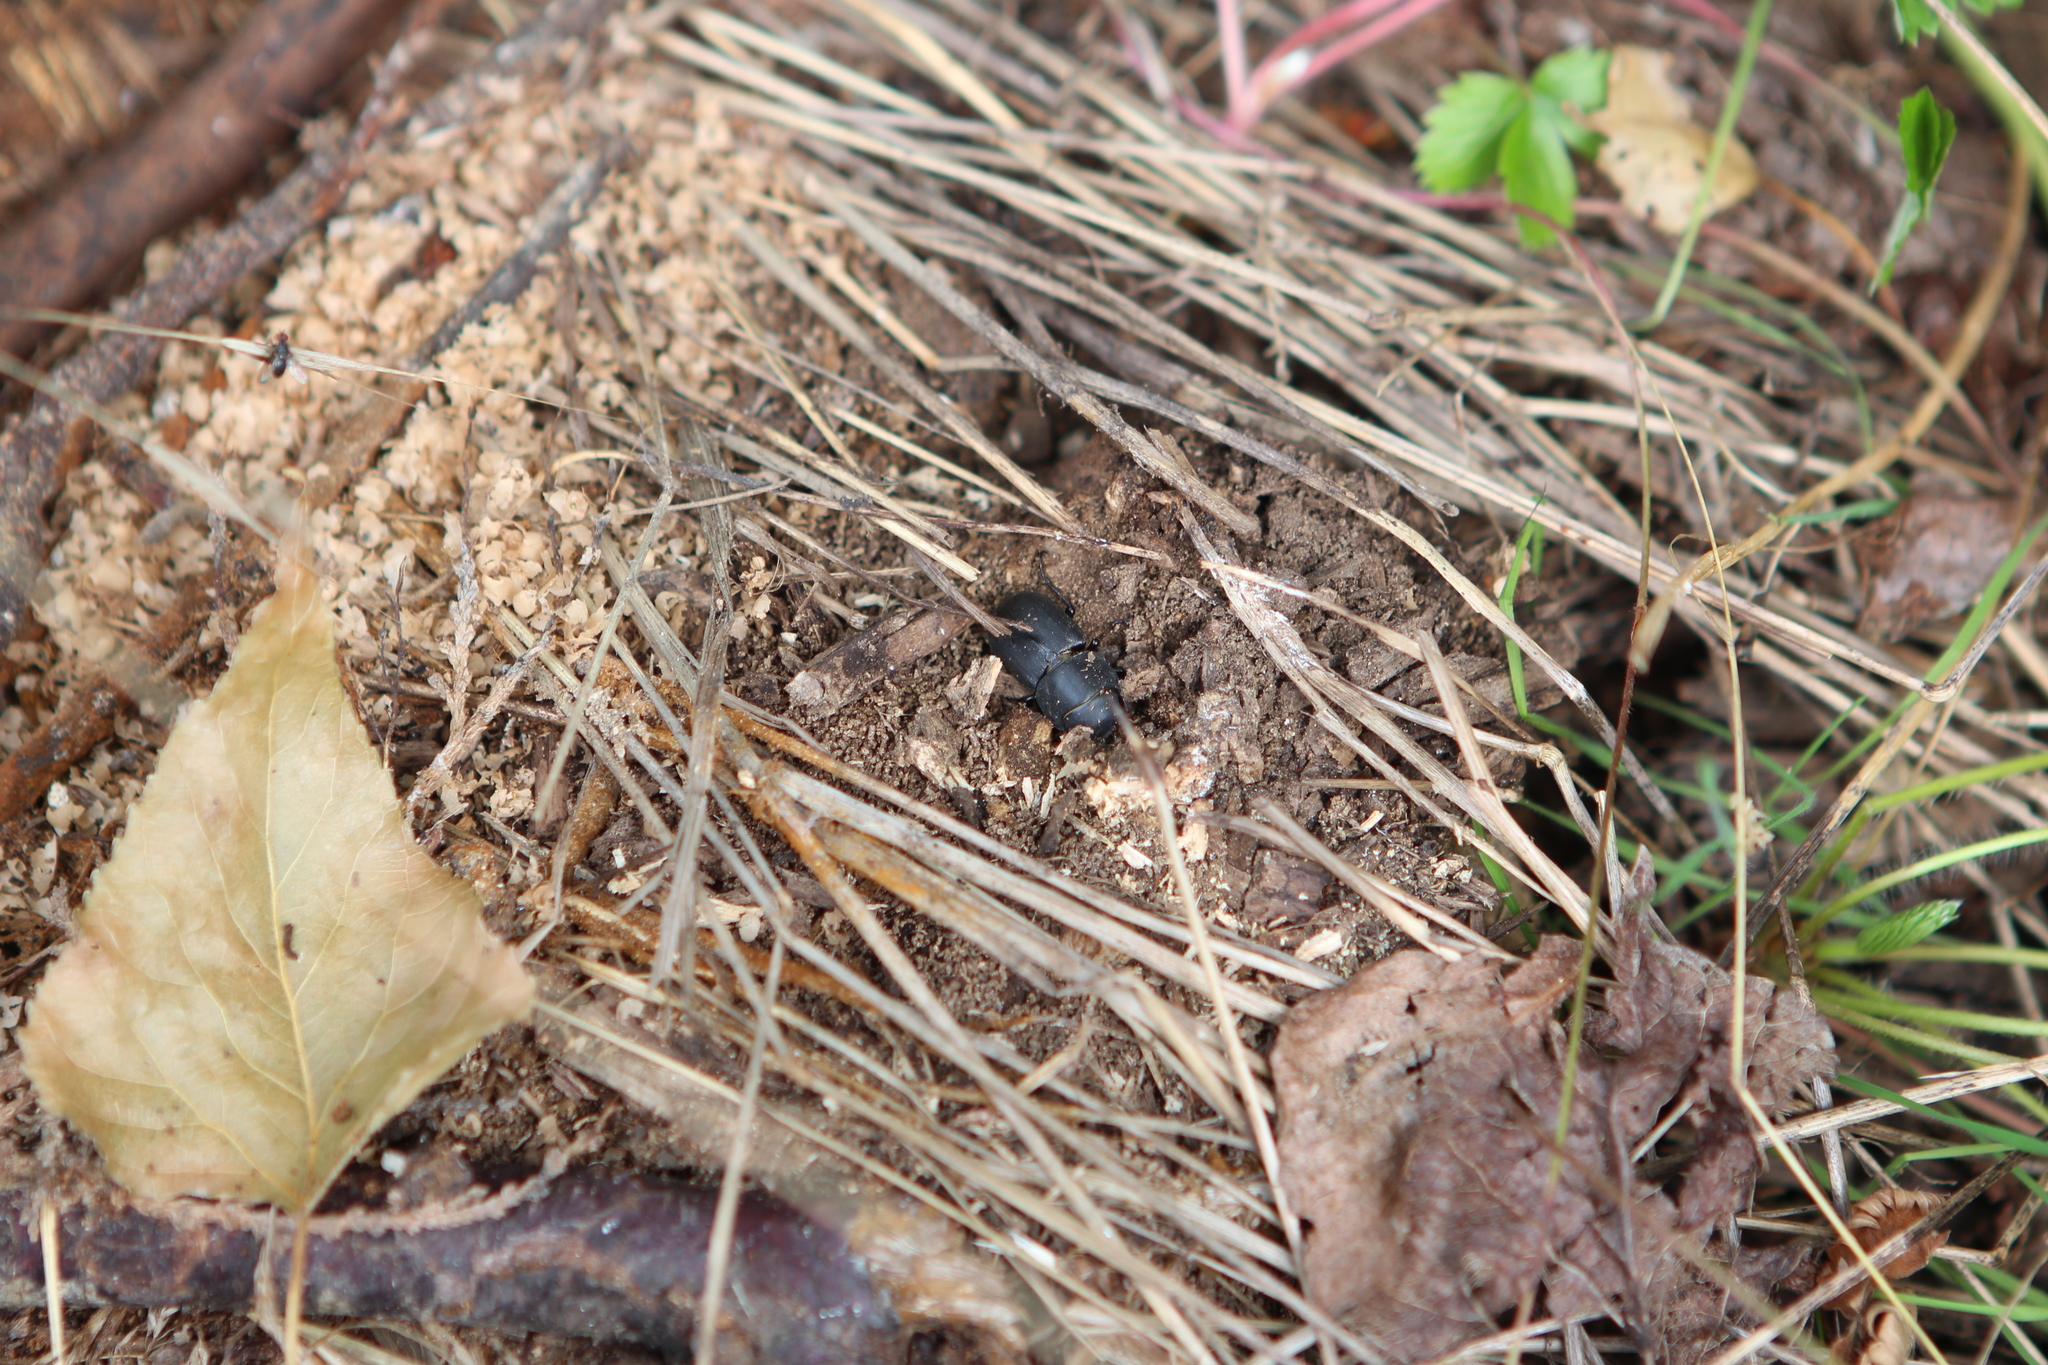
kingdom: Animalia
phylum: Arthropoda
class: Insecta
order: Coleoptera
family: Lucanidae
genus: Dorcus
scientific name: Dorcus parallelipipedus
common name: Lesser stag beetle
